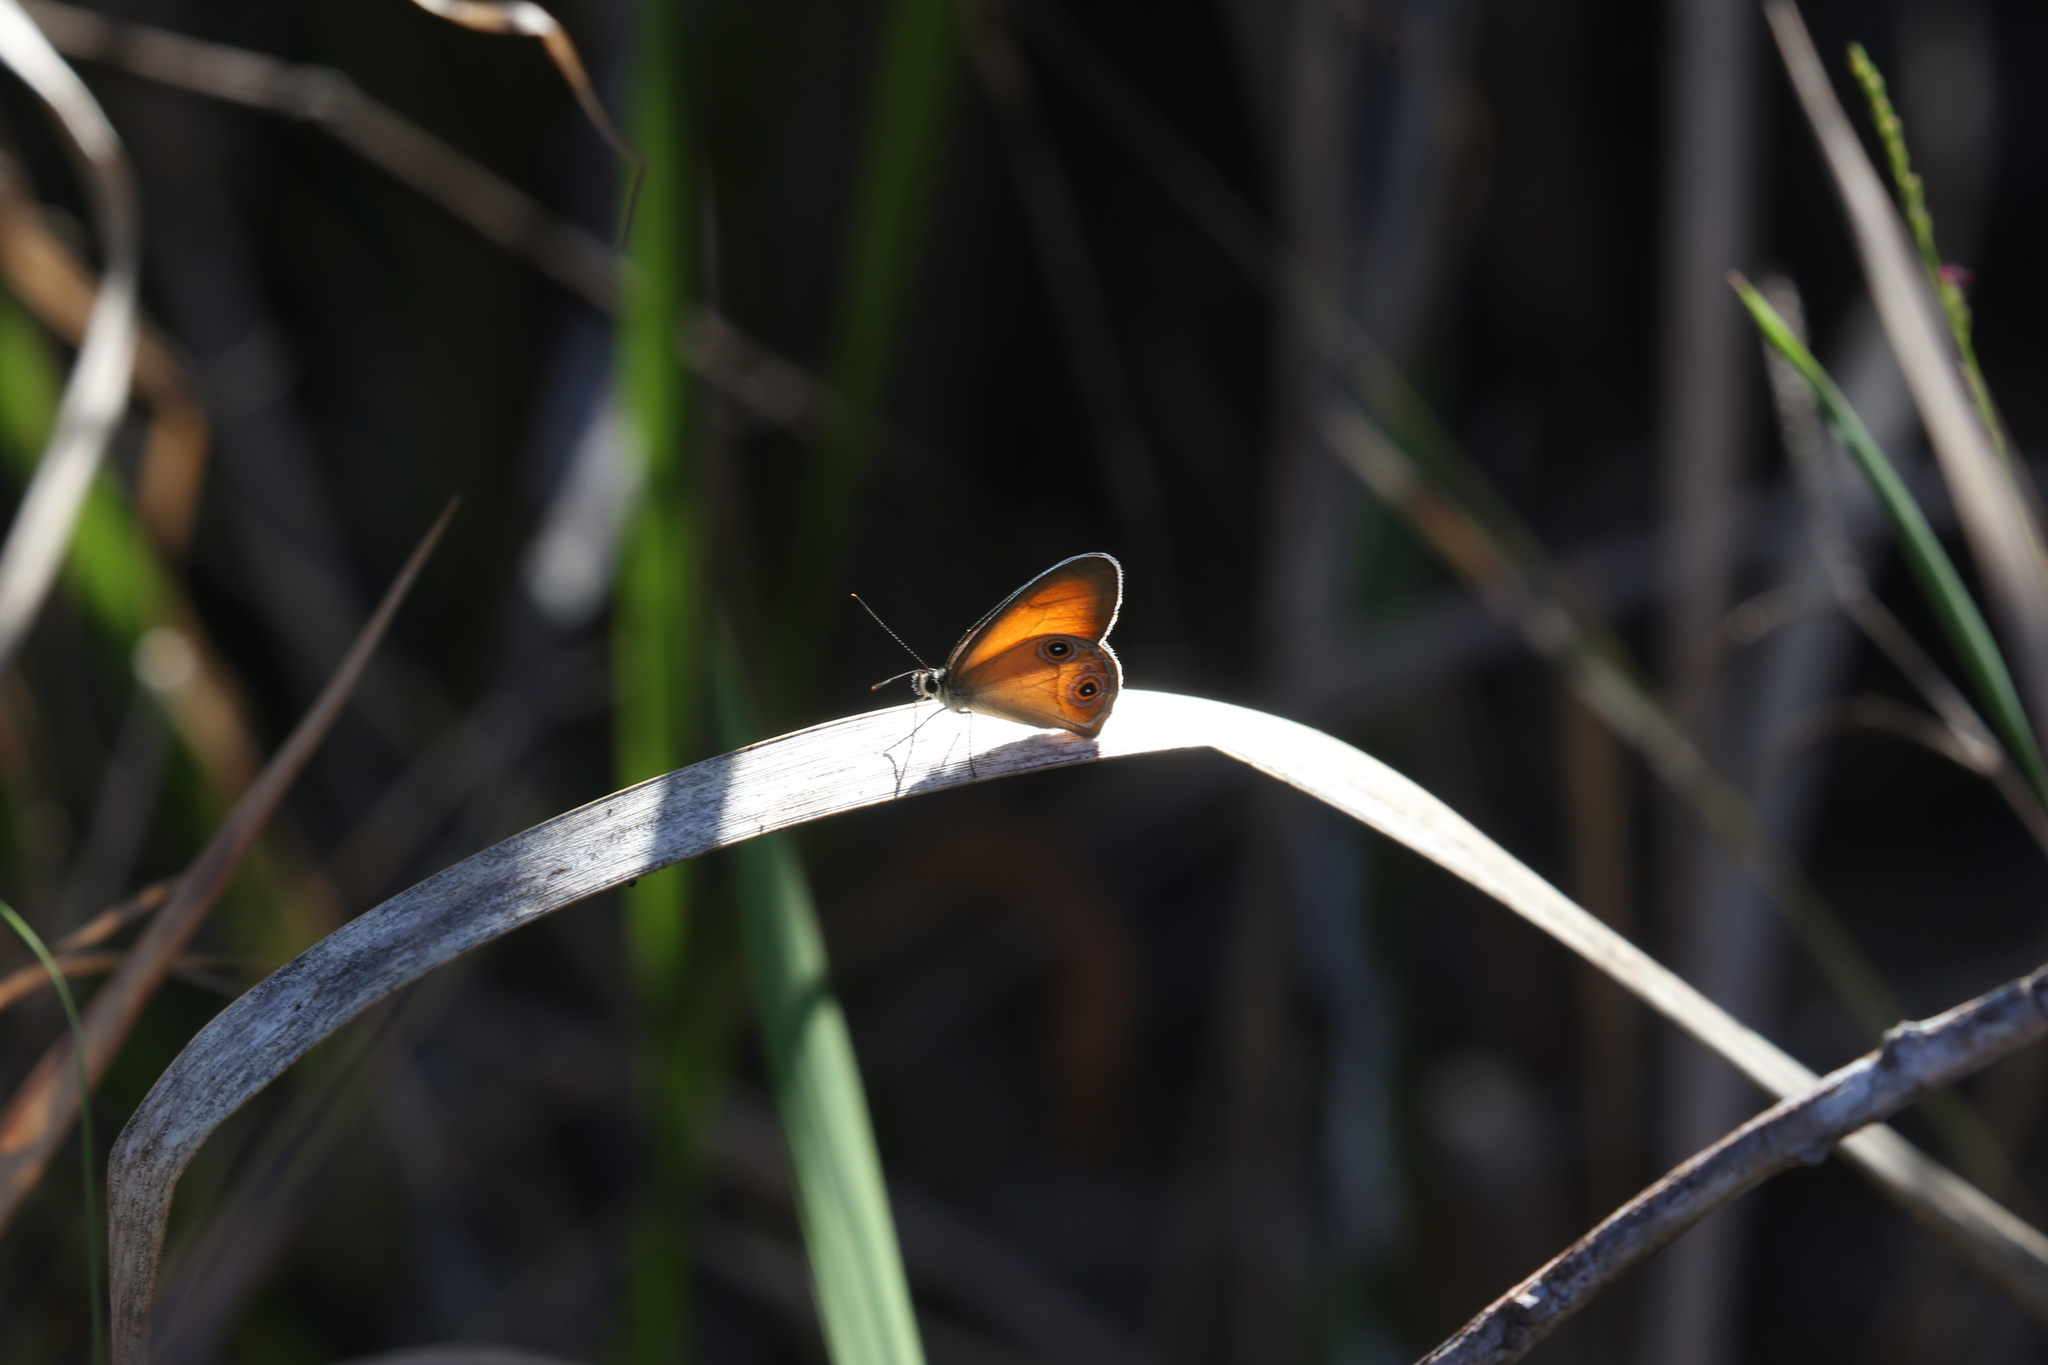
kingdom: Animalia
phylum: Arthropoda
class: Insecta
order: Lepidoptera
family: Nymphalidae
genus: Hypocysta
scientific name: Hypocysta adiante
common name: Orange ringlet
